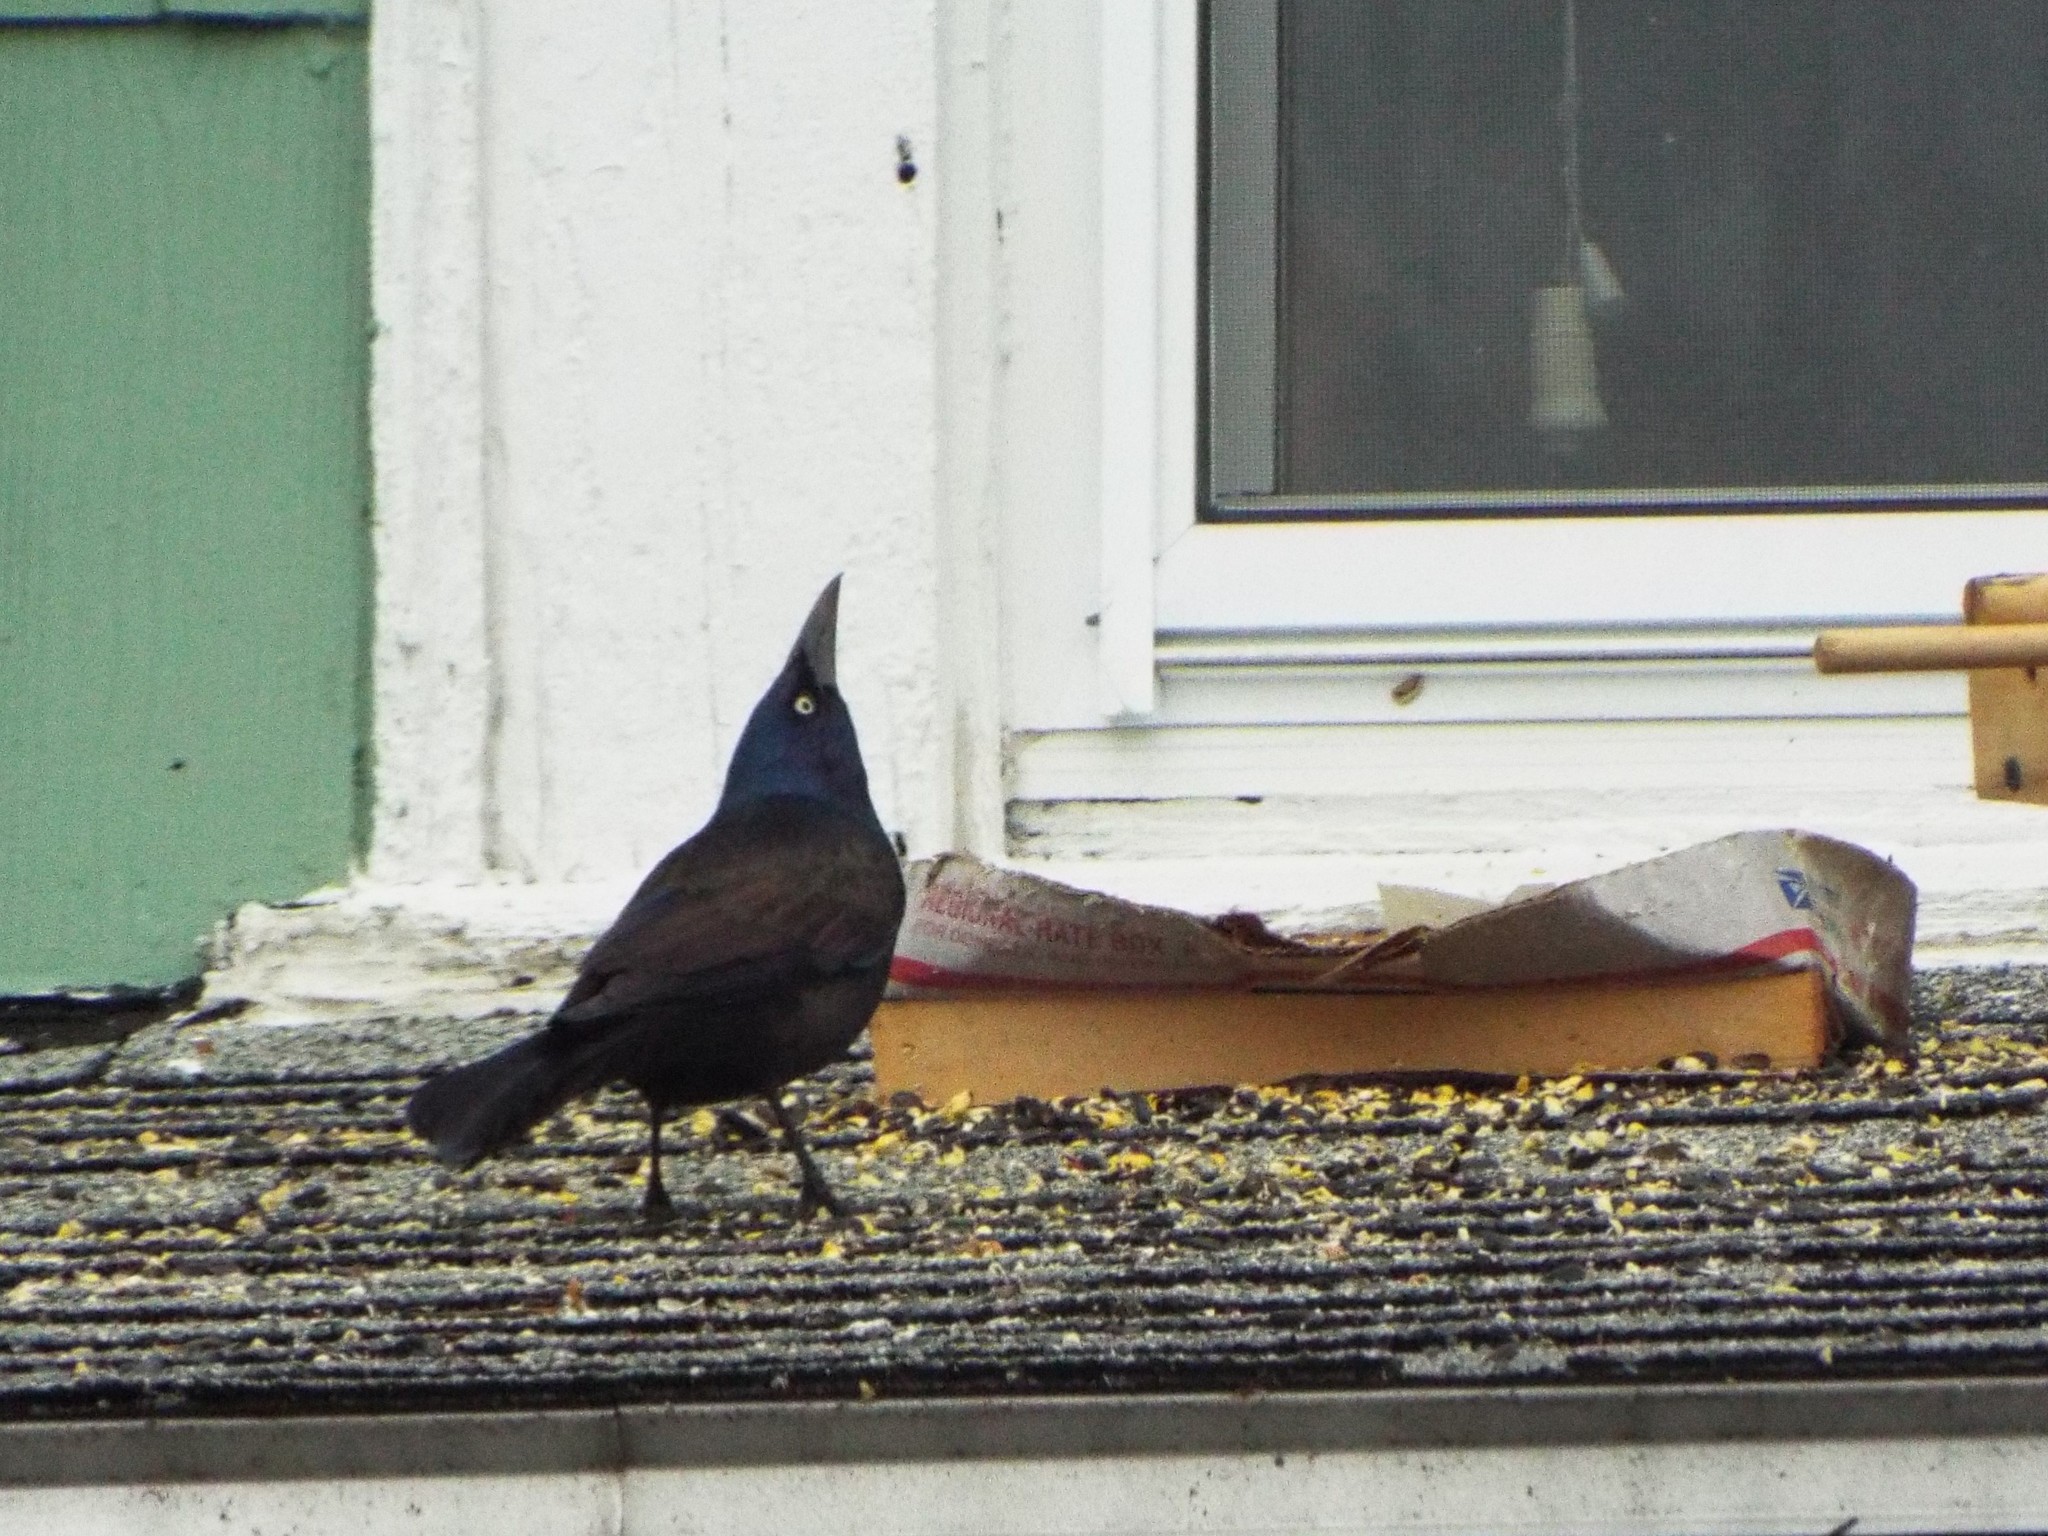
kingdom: Animalia
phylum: Chordata
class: Aves
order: Passeriformes
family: Icteridae
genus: Quiscalus
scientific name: Quiscalus quiscula
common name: Common grackle
